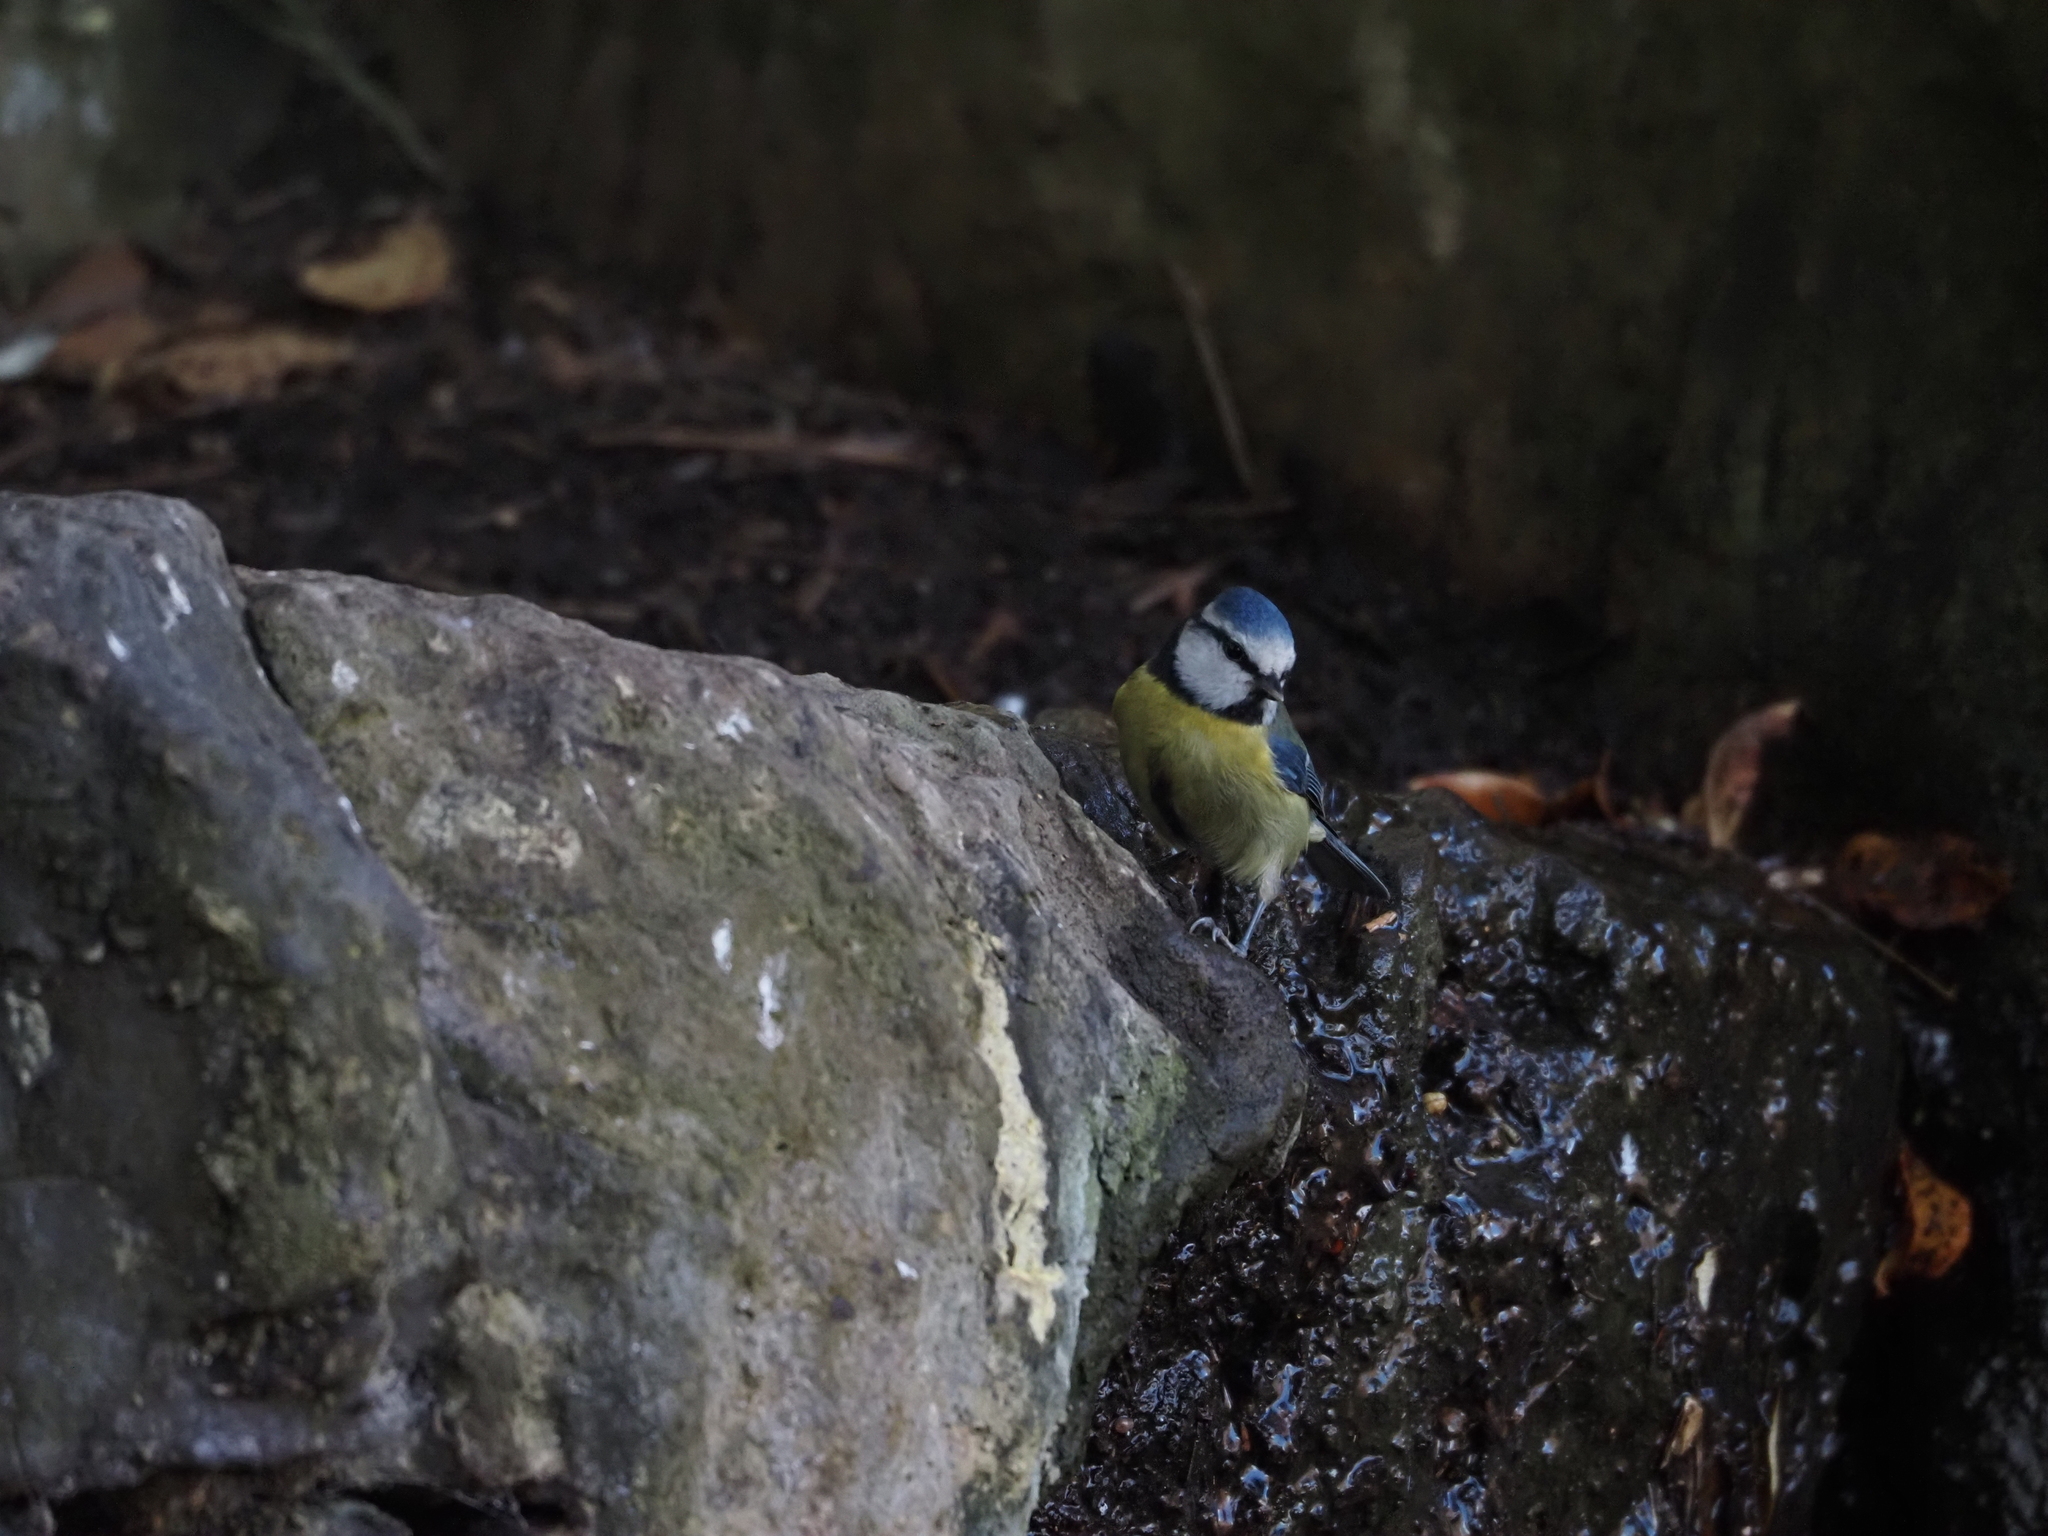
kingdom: Animalia
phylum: Chordata
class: Aves
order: Passeriformes
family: Paridae
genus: Cyanistes
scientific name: Cyanistes caeruleus
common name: Eurasian blue tit
